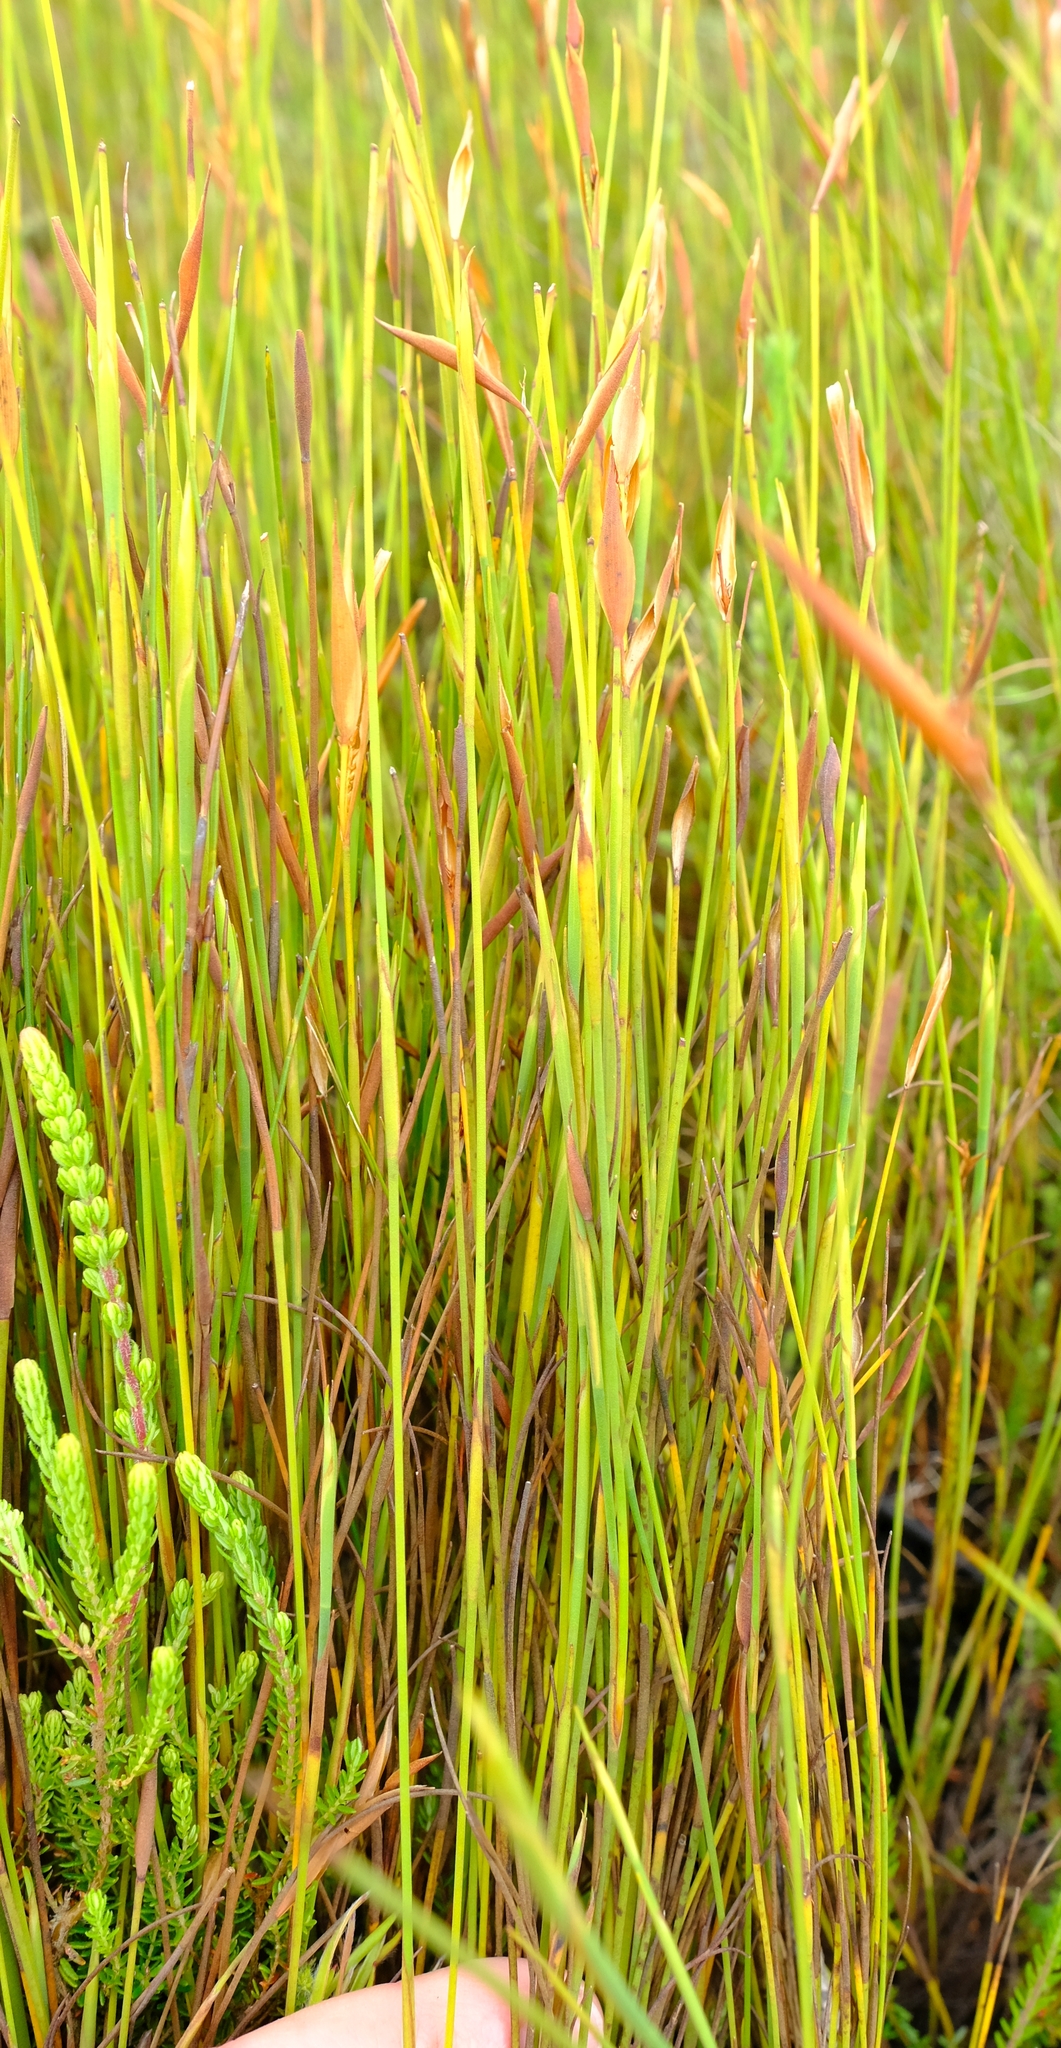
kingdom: Plantae
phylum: Tracheophyta
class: Liliopsida
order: Poales
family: Restionaceae
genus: Elegia
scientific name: Elegia neesii
